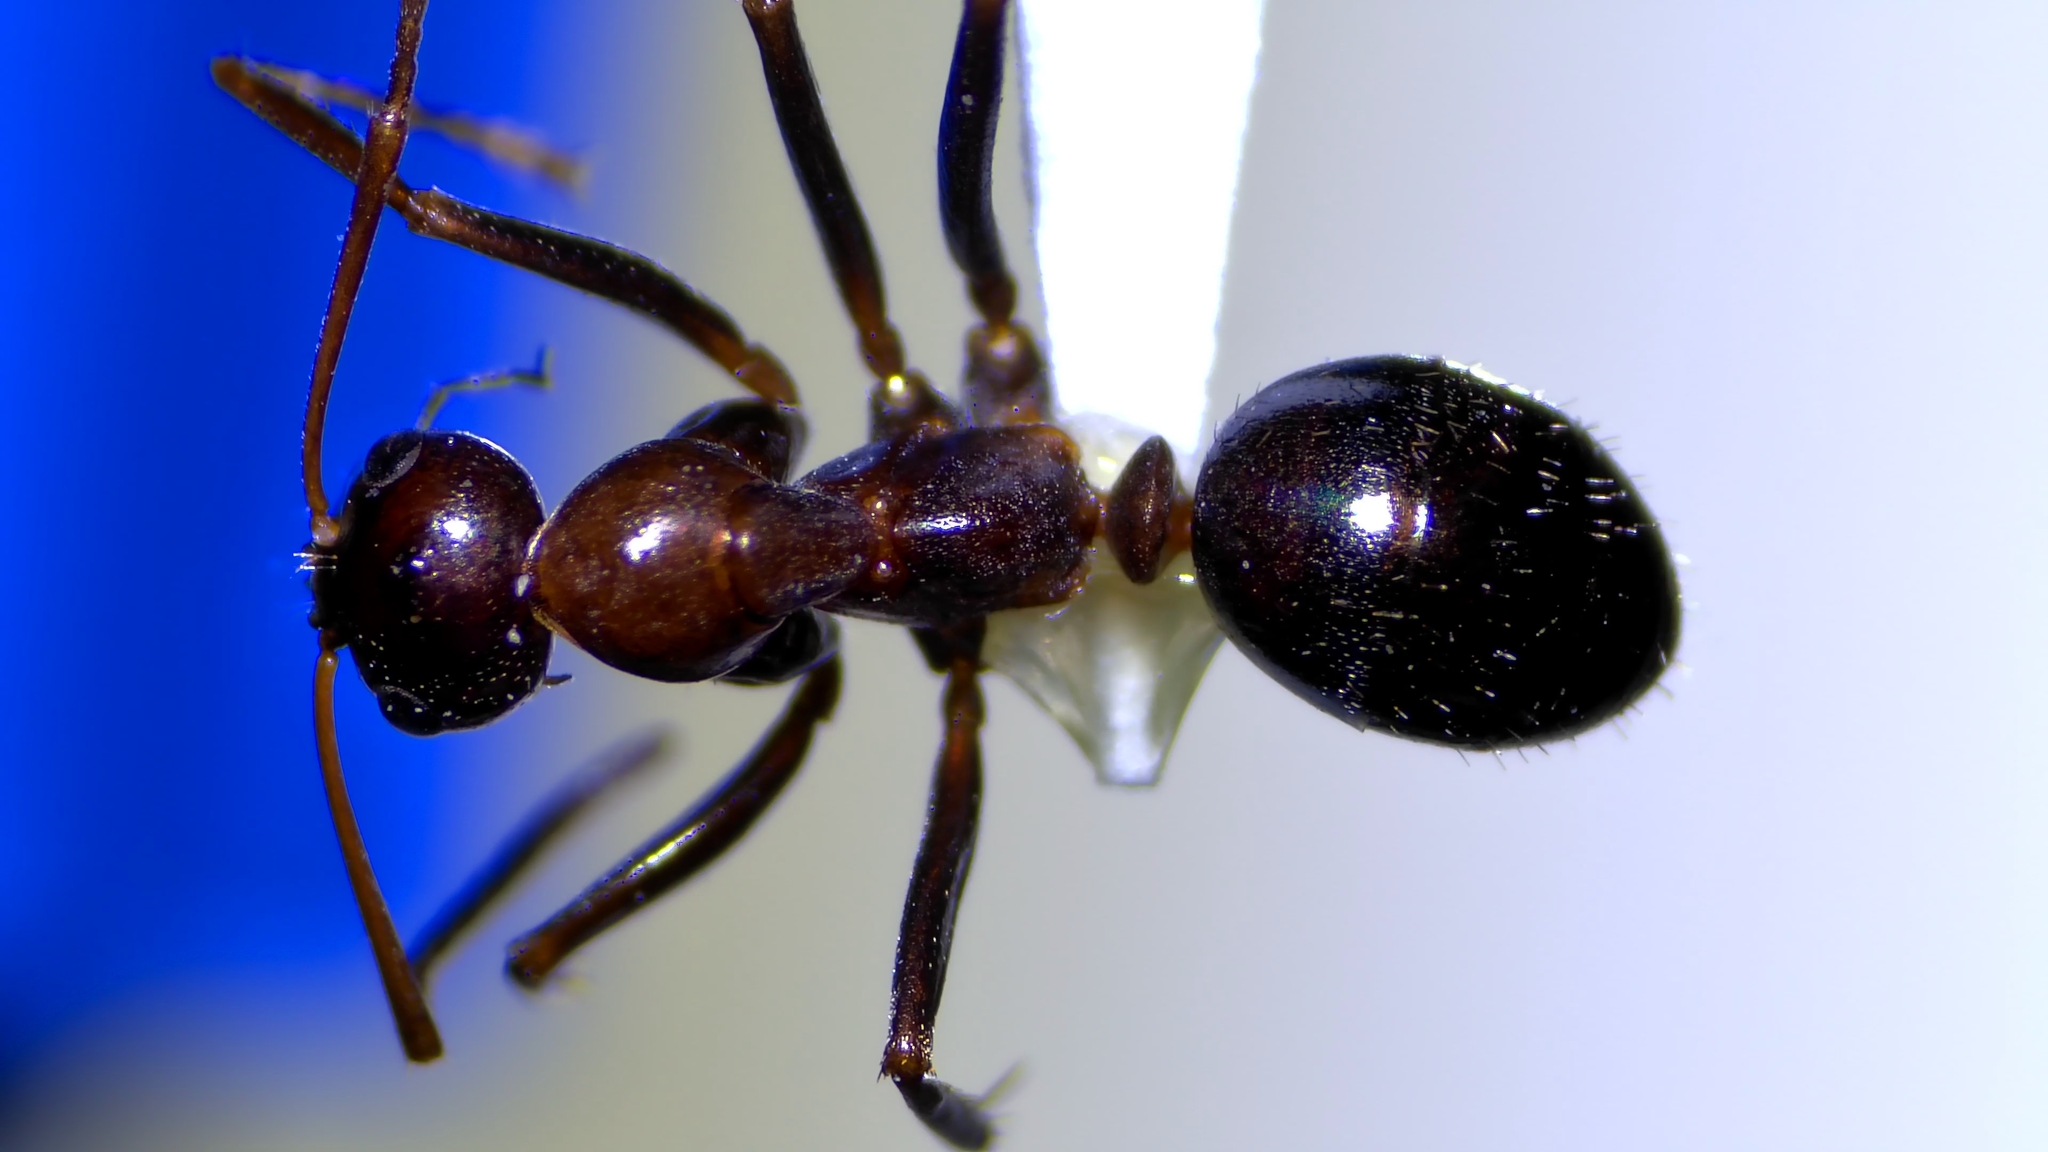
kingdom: Animalia
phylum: Arthropoda
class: Insecta
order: Hymenoptera
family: Formicidae
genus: Formica
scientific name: Formica pallidefulva
